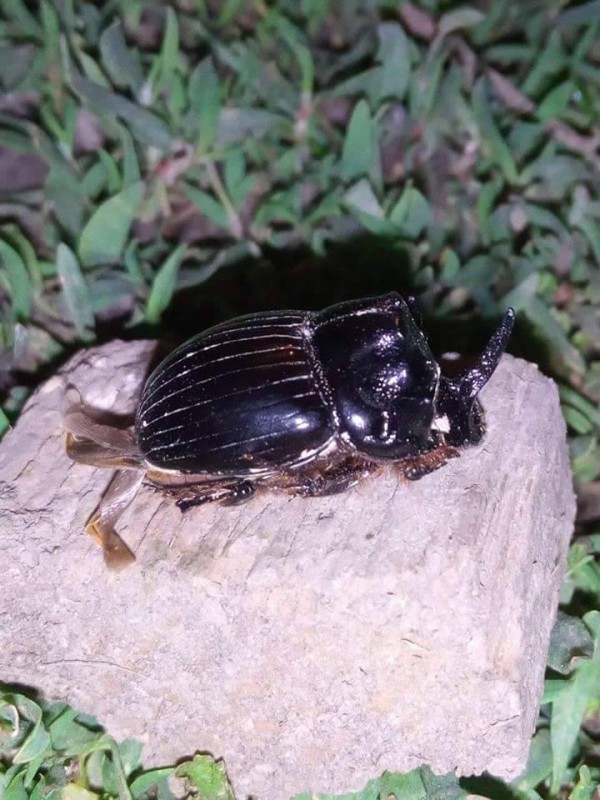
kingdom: Animalia
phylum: Arthropoda
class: Insecta
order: Coleoptera
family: Scarabaeidae
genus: Copris
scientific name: Copris lunaris
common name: Horned dung beetle
